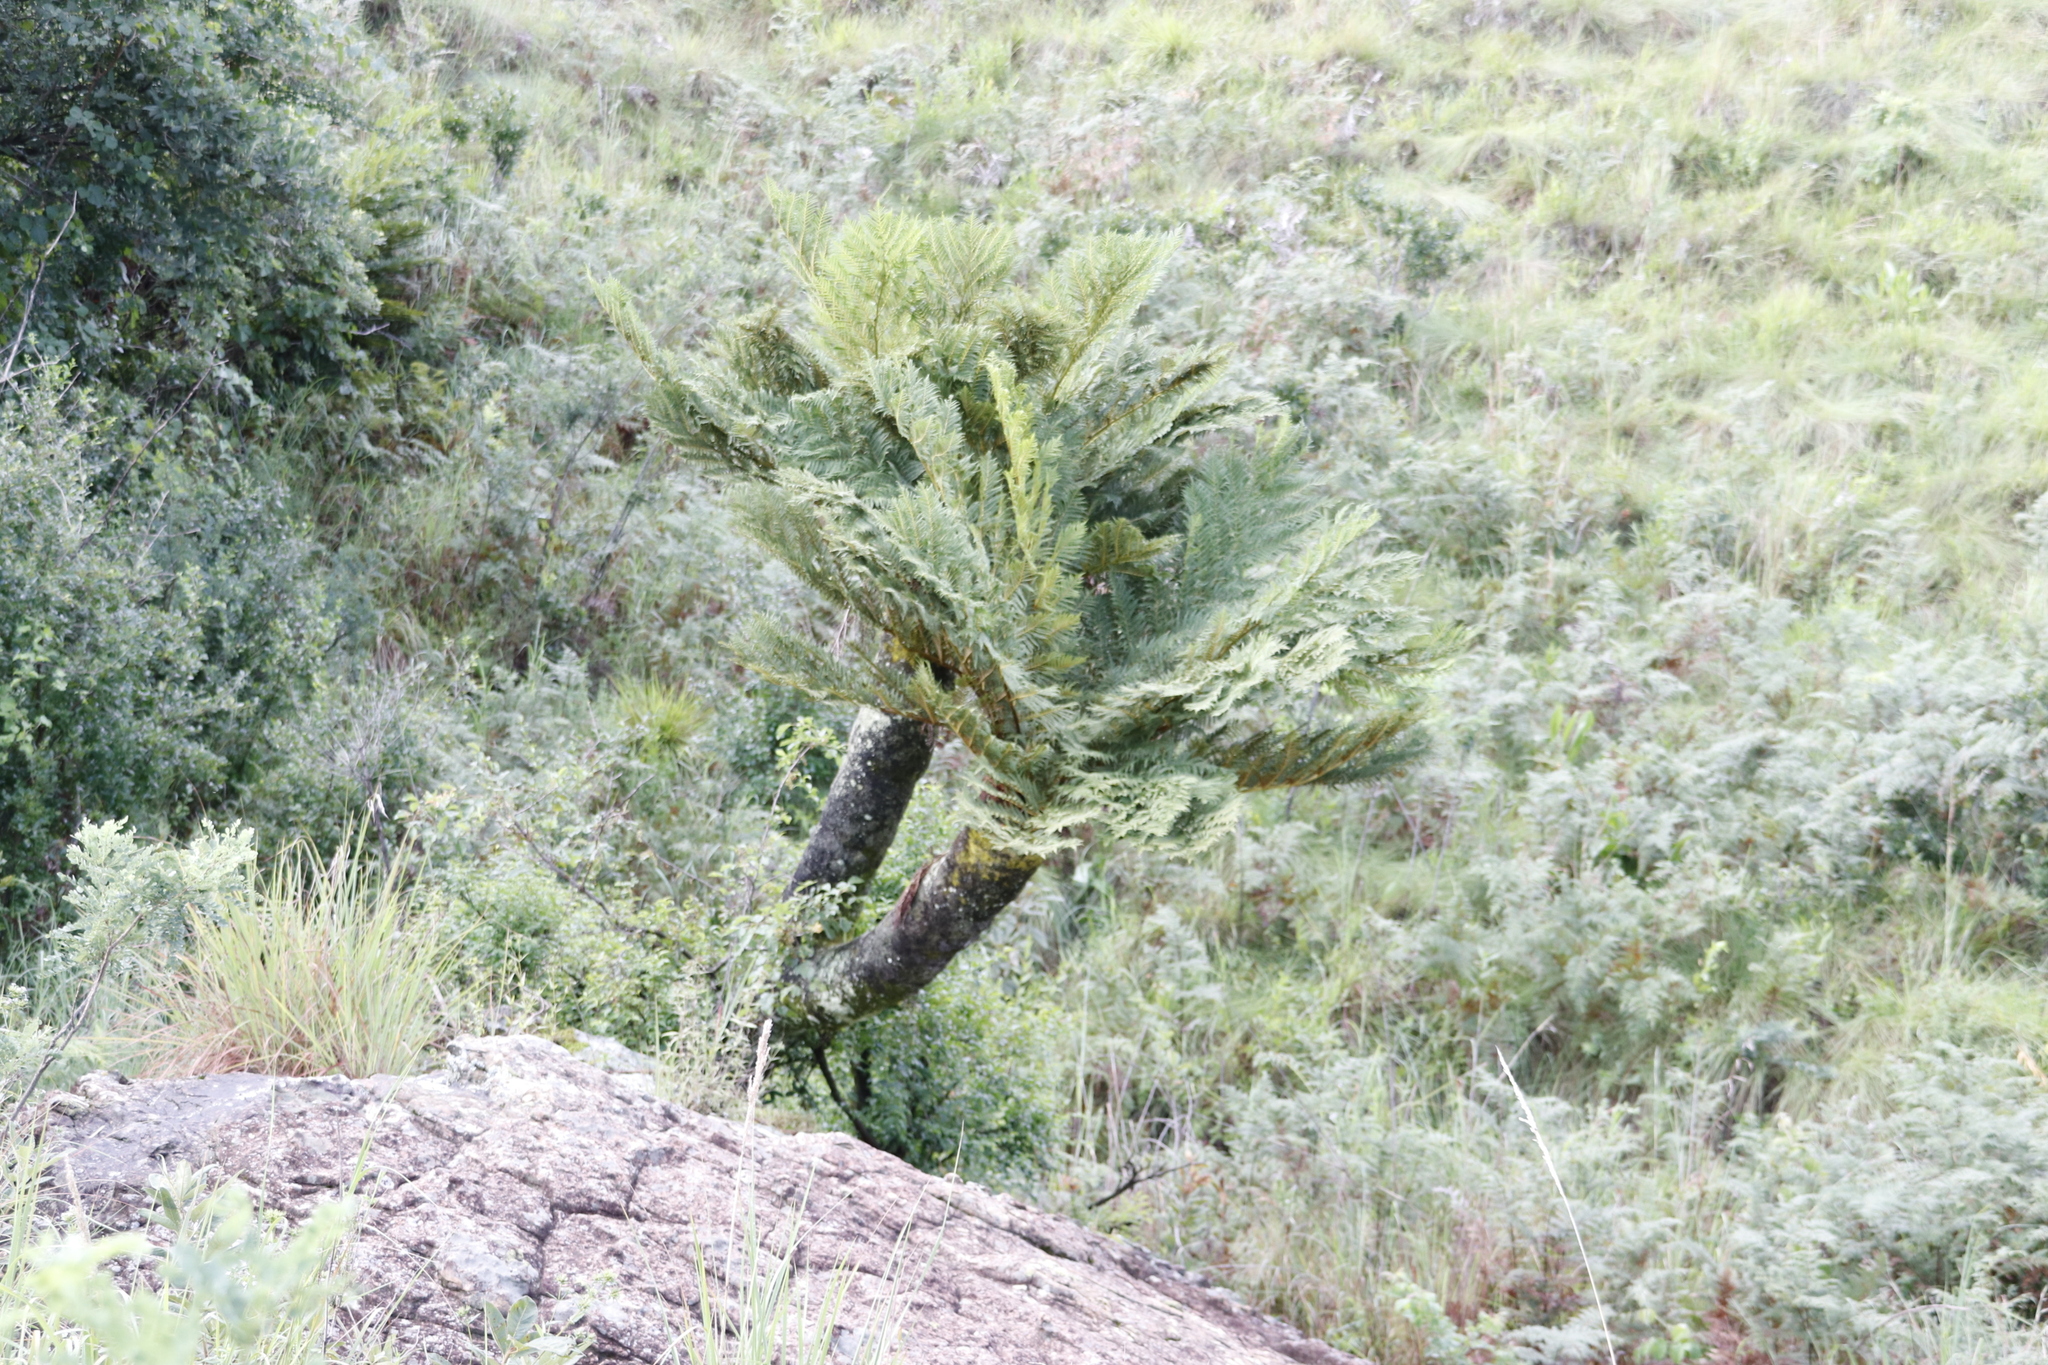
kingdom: Plantae
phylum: Tracheophyta
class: Polypodiopsida
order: Cyatheales
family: Cyatheaceae
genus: Alsophila
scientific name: Alsophila dregei
